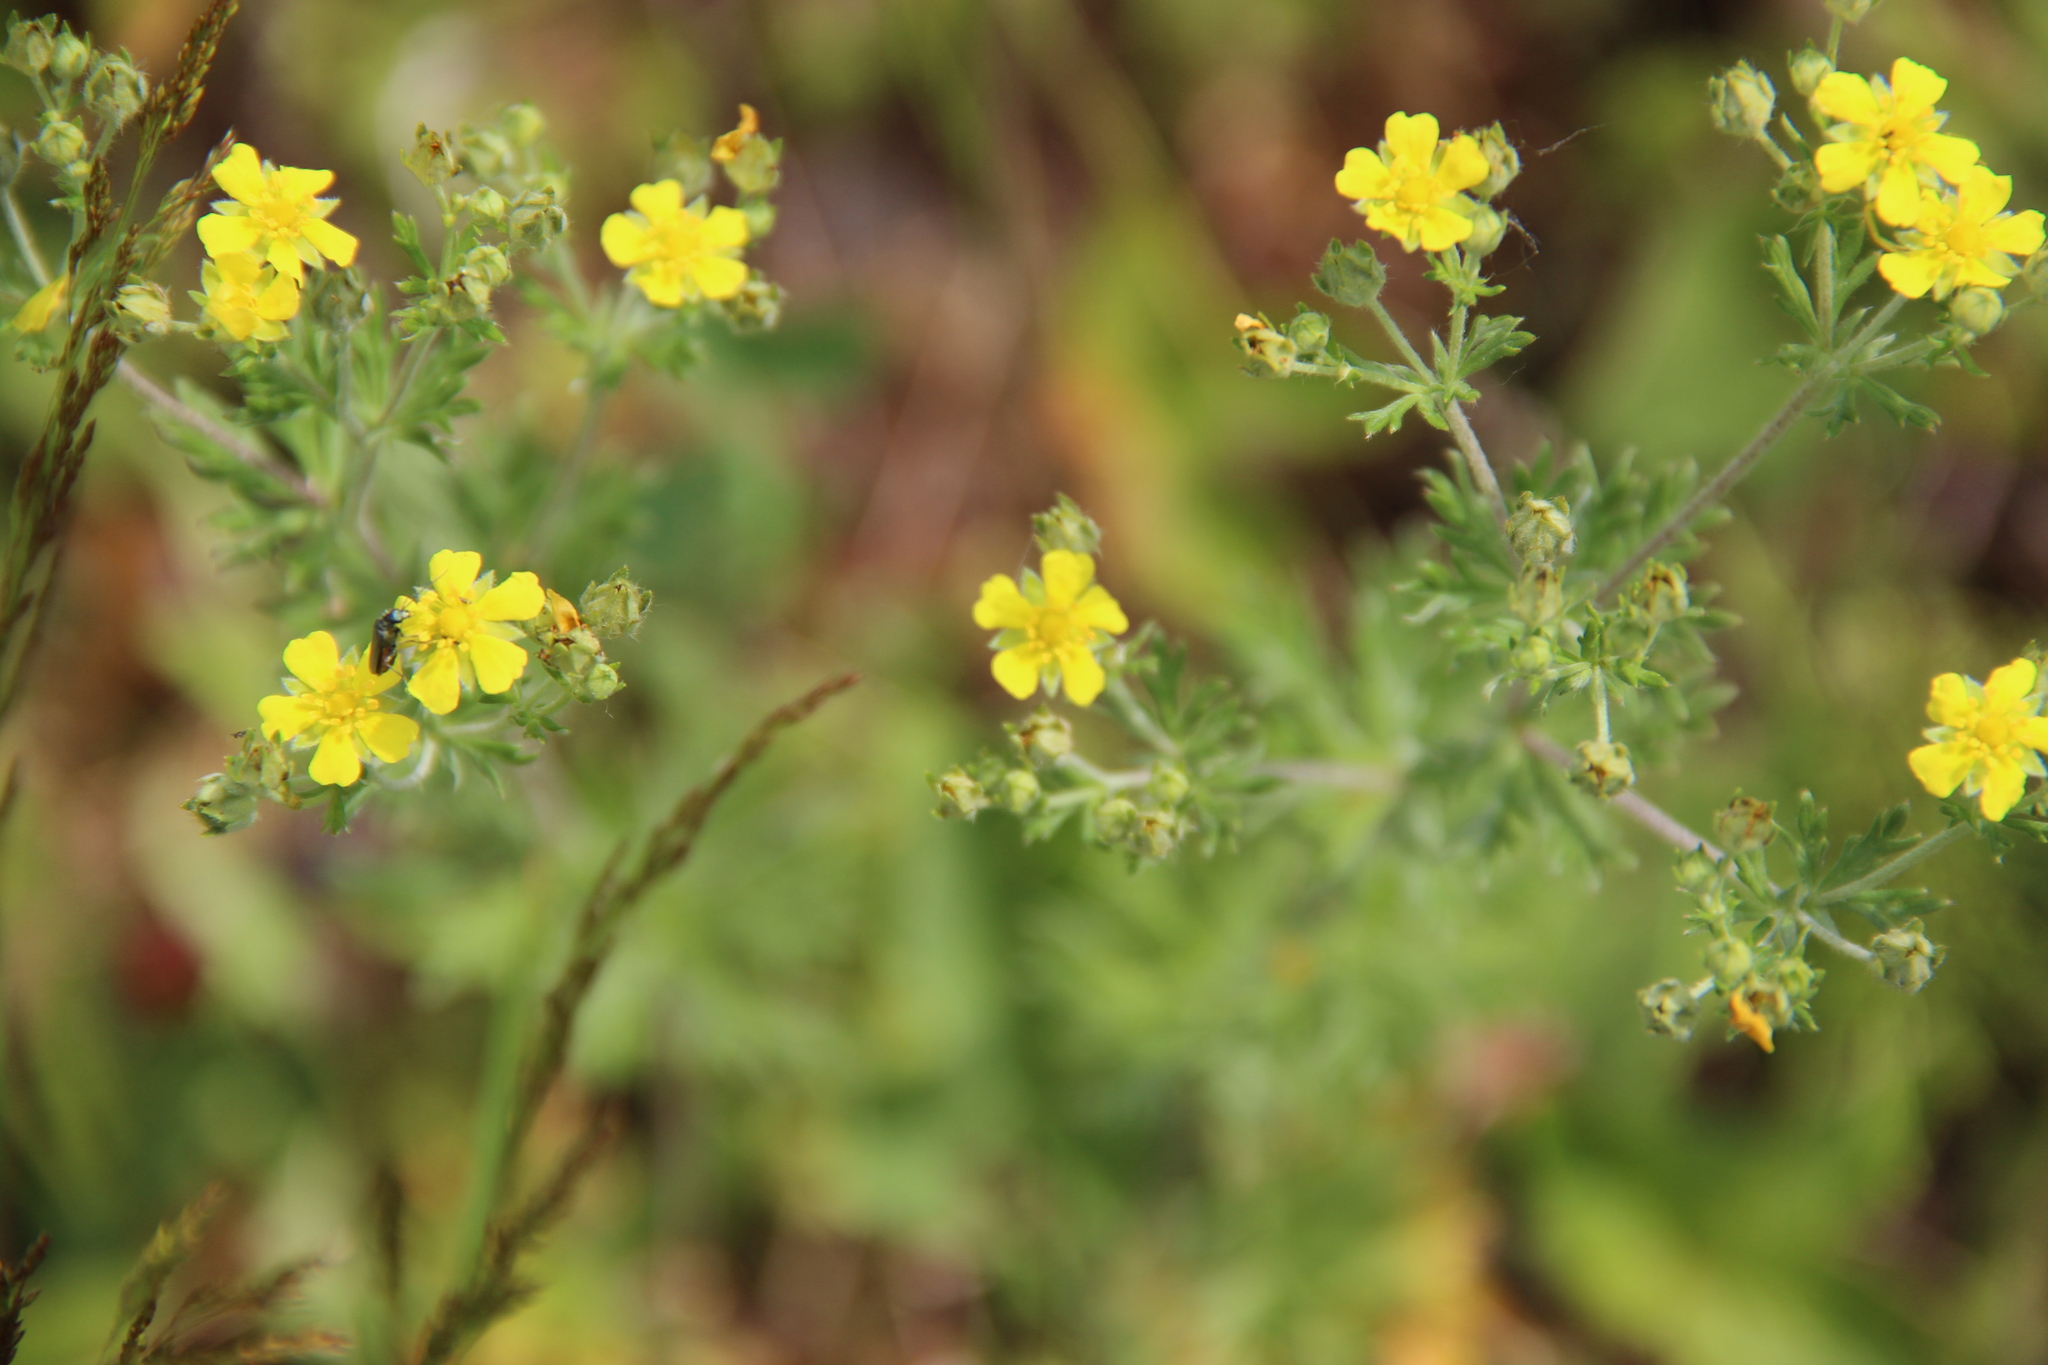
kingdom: Plantae
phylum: Tracheophyta
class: Magnoliopsida
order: Rosales
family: Rosaceae
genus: Potentilla
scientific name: Potentilla argentea
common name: Hoary cinquefoil
